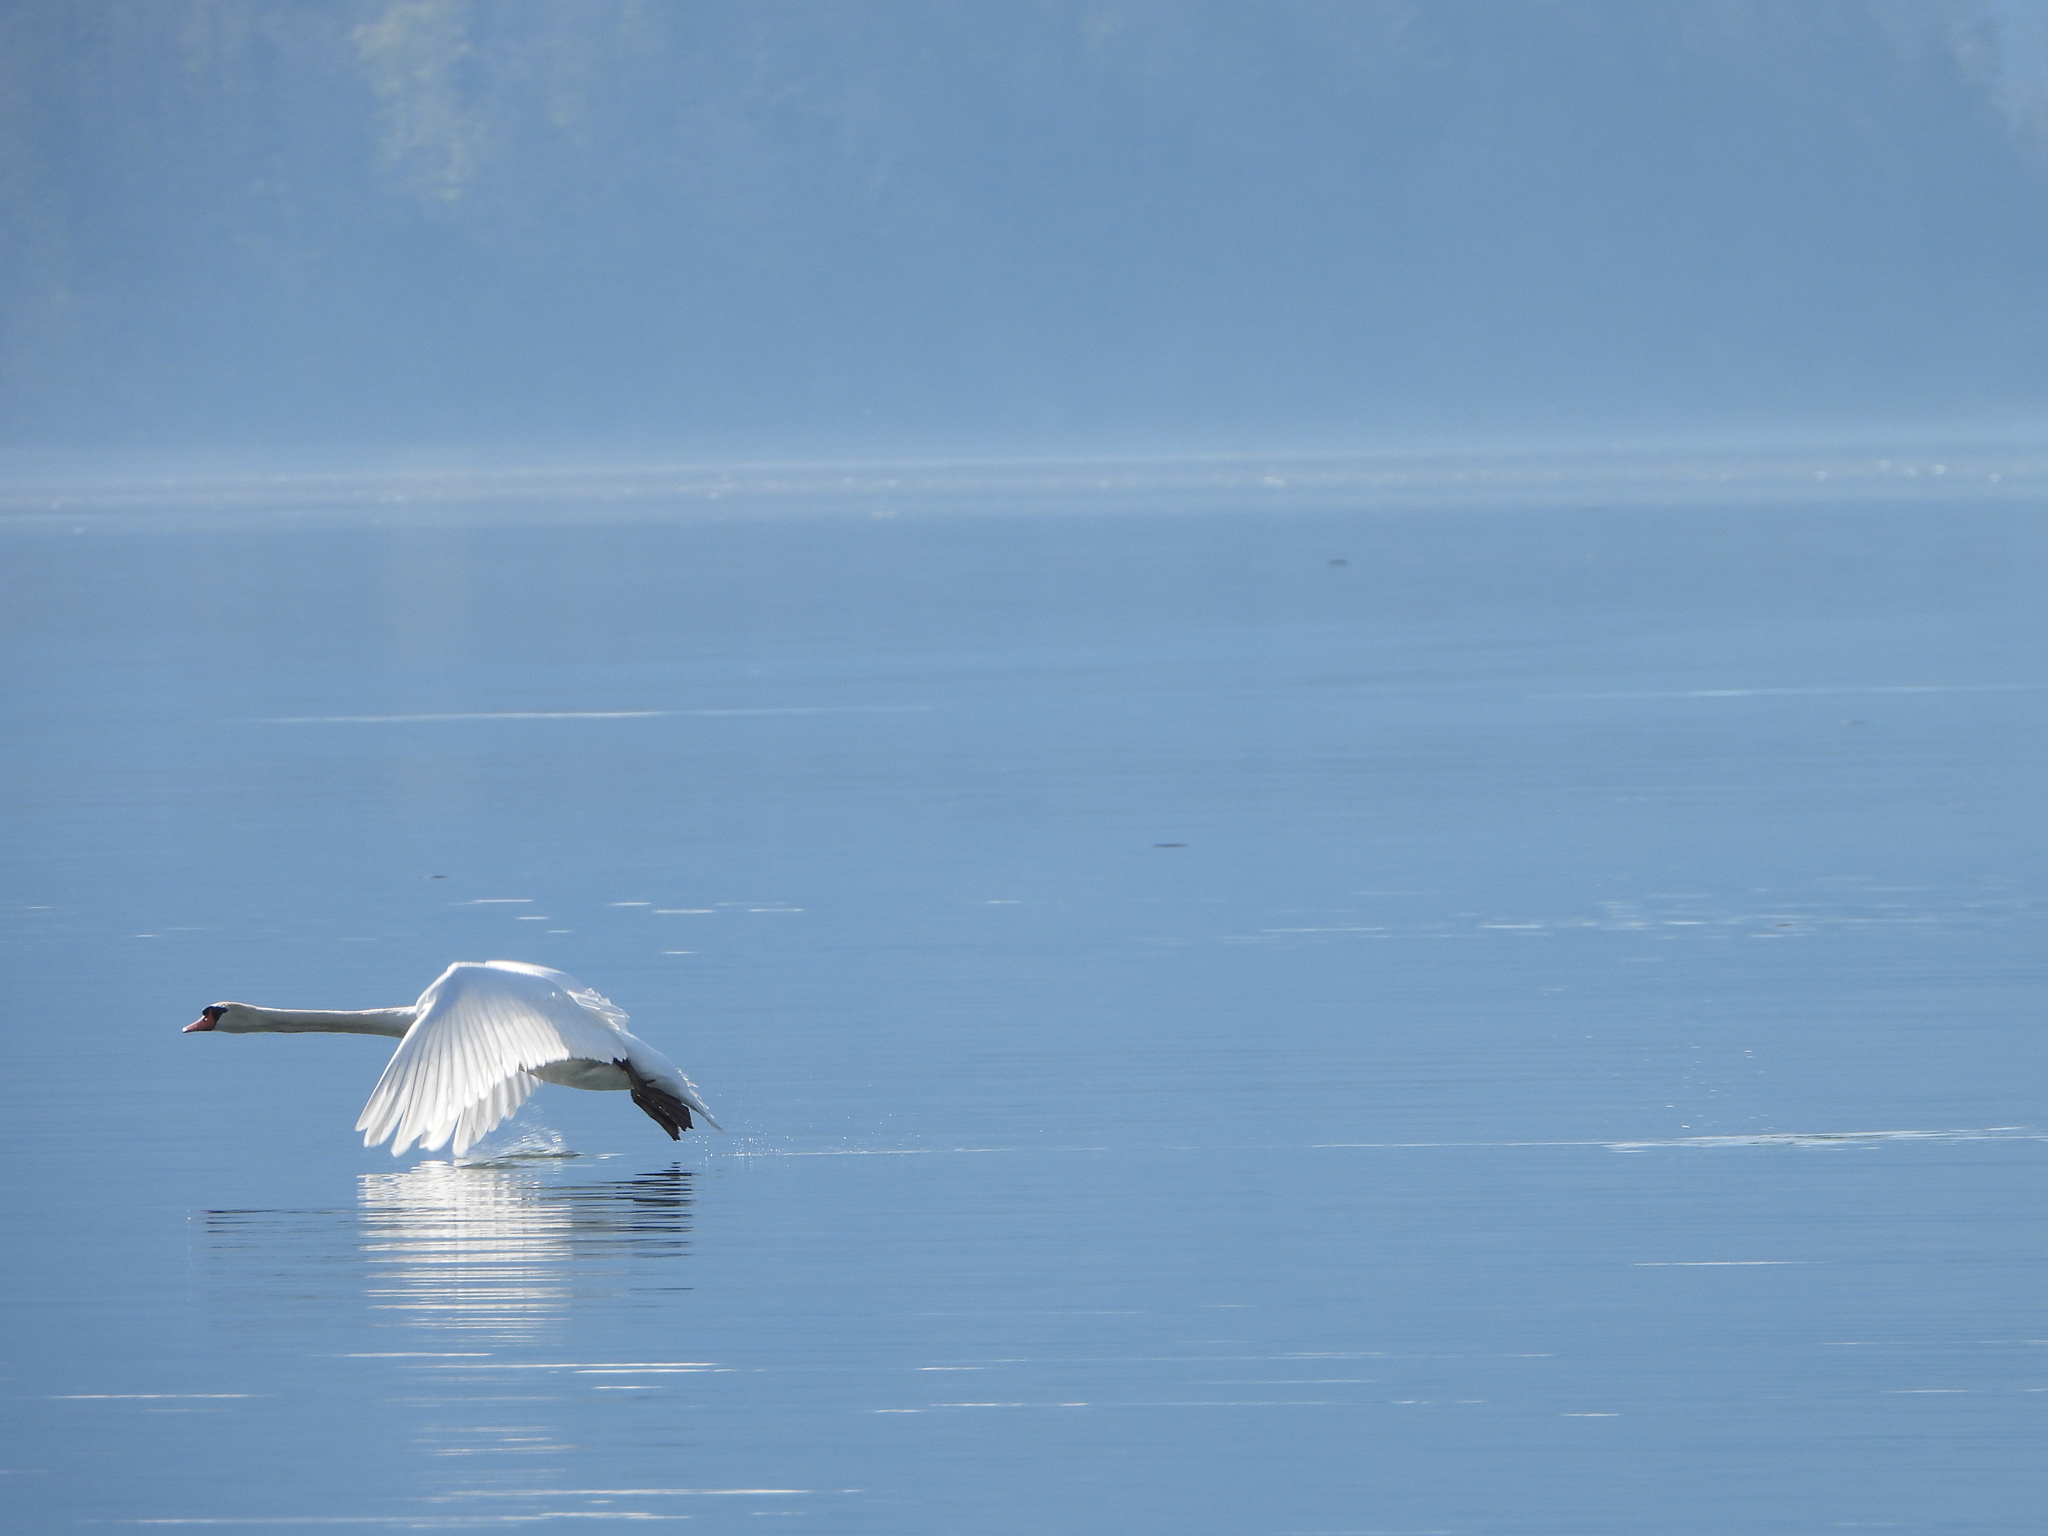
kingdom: Animalia
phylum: Chordata
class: Aves
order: Anseriformes
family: Anatidae
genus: Cygnus
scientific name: Cygnus olor
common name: Mute swan
